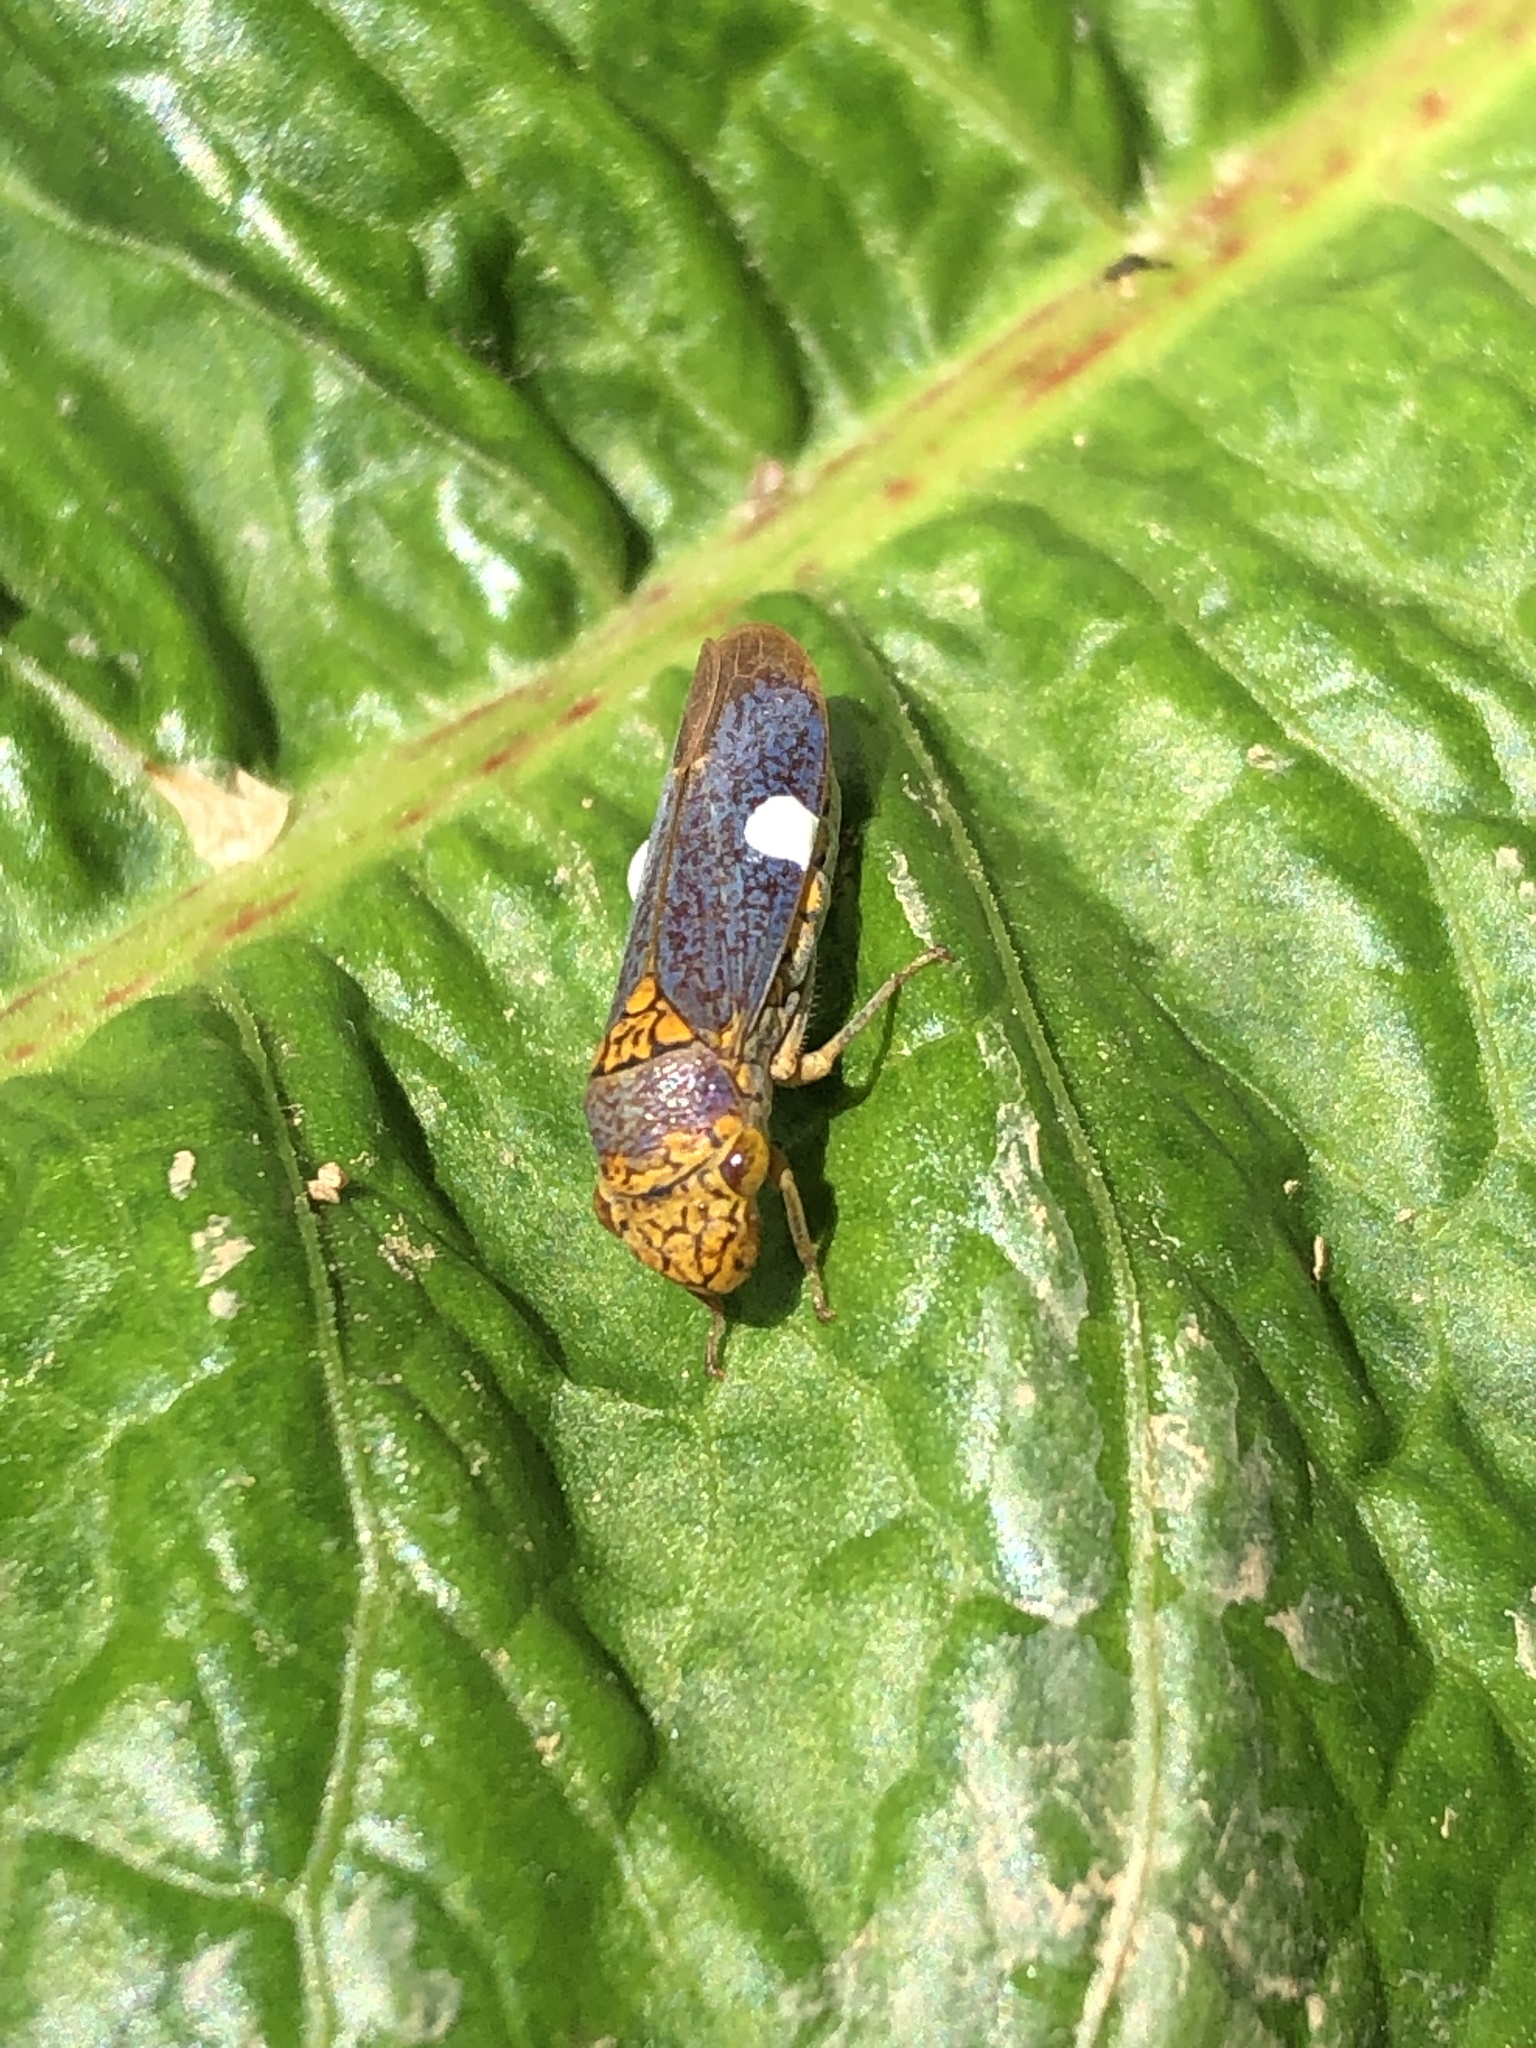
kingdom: Animalia
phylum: Arthropoda
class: Insecta
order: Hemiptera
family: Cicadellidae
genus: Oncometopia
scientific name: Oncometopia orbona
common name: Broad-headed sharpshooter
